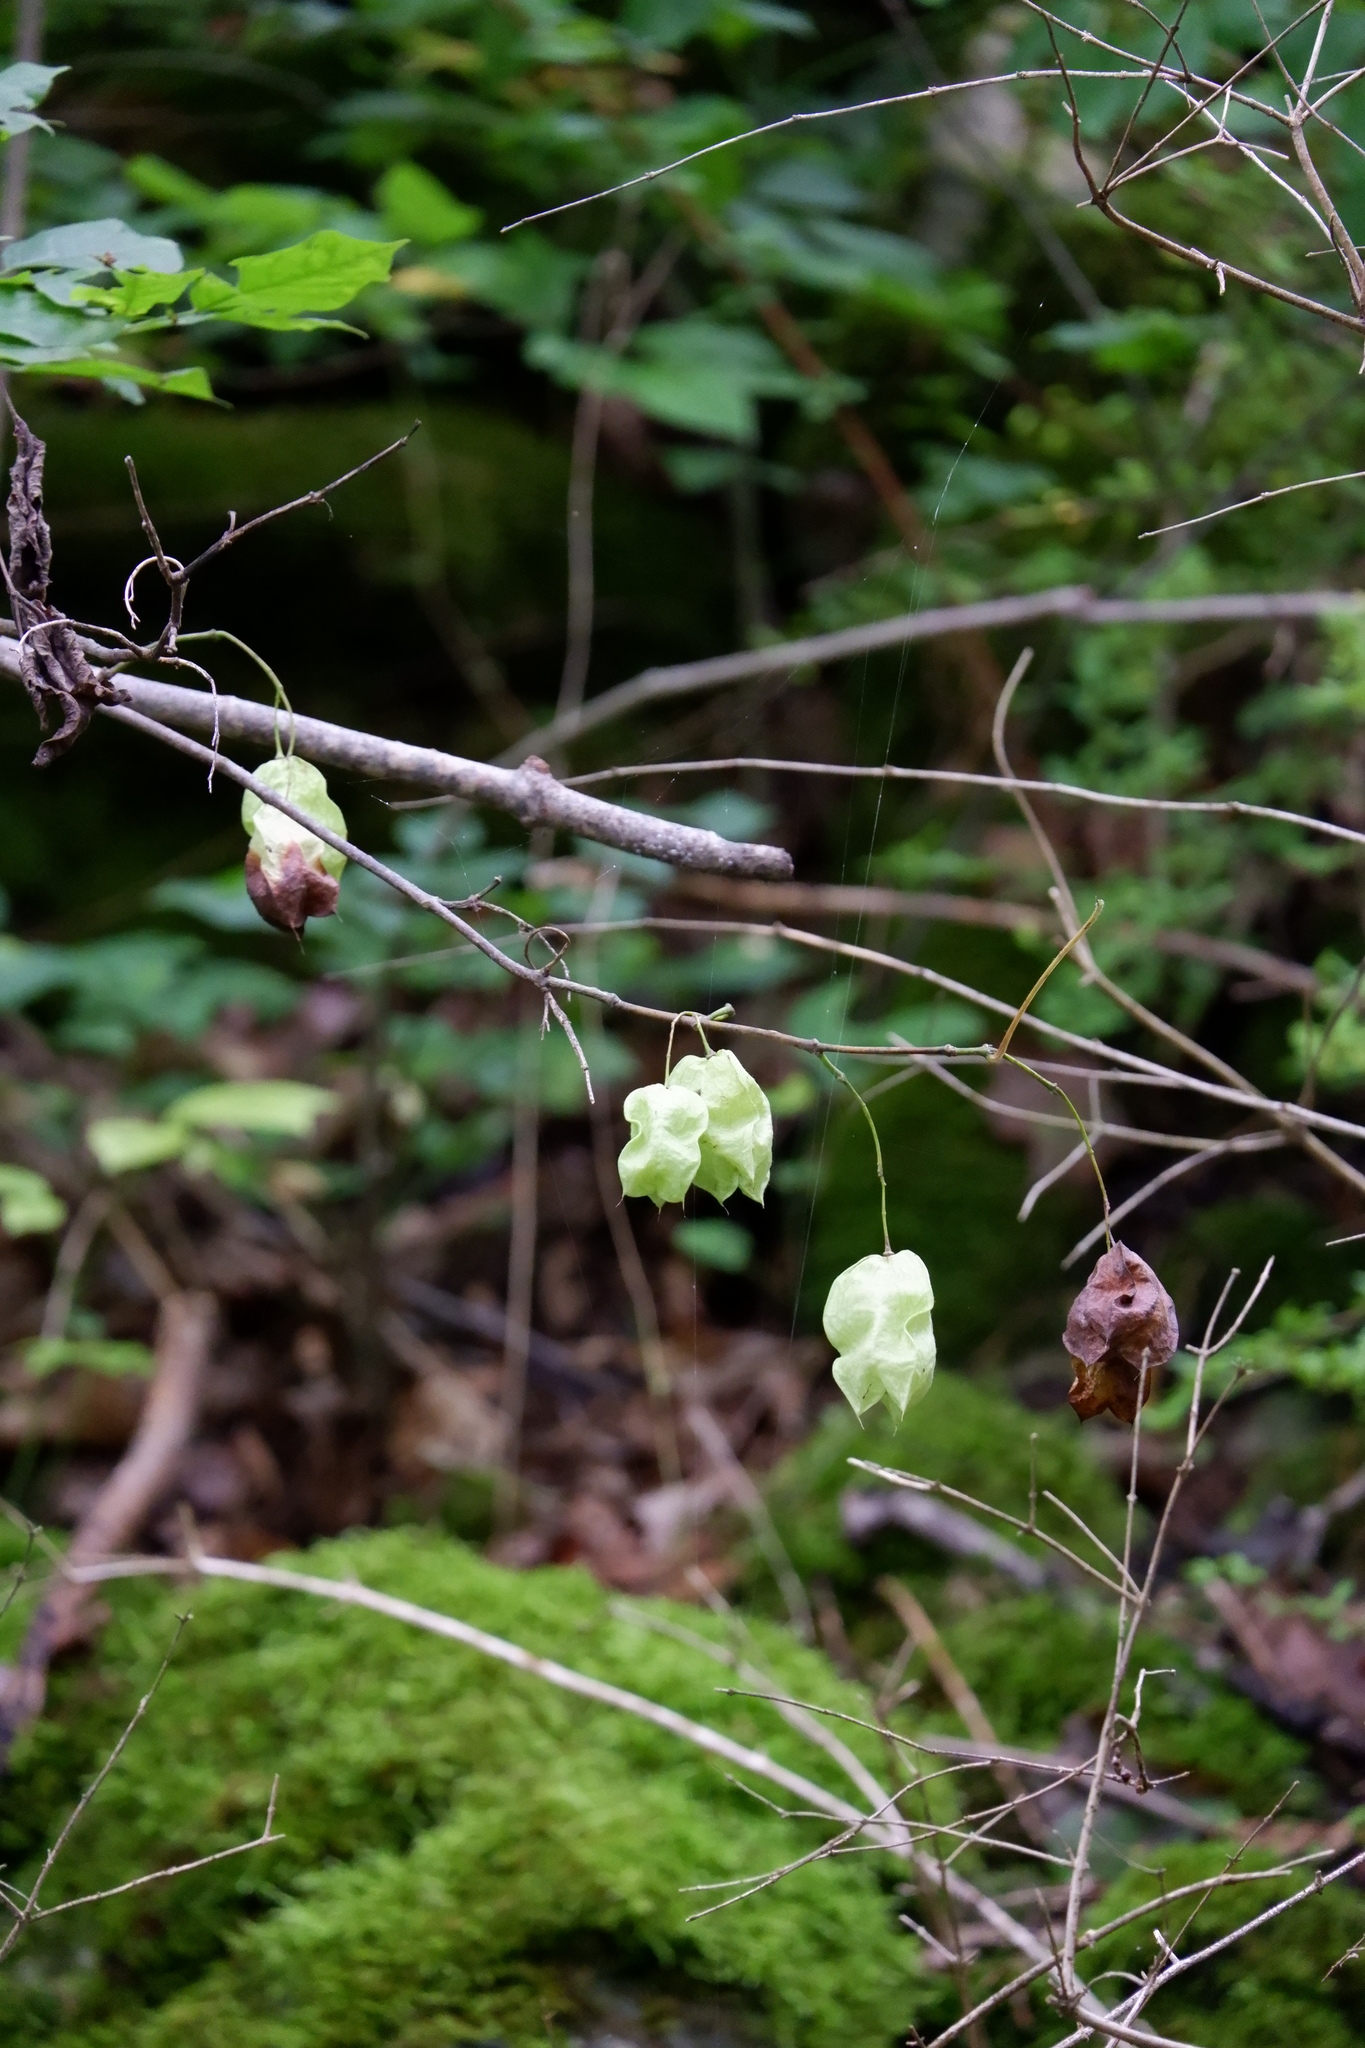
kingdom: Plantae
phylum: Tracheophyta
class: Magnoliopsida
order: Crossosomatales
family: Staphyleaceae
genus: Staphylea
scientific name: Staphylea trifolia
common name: American bladdernut
